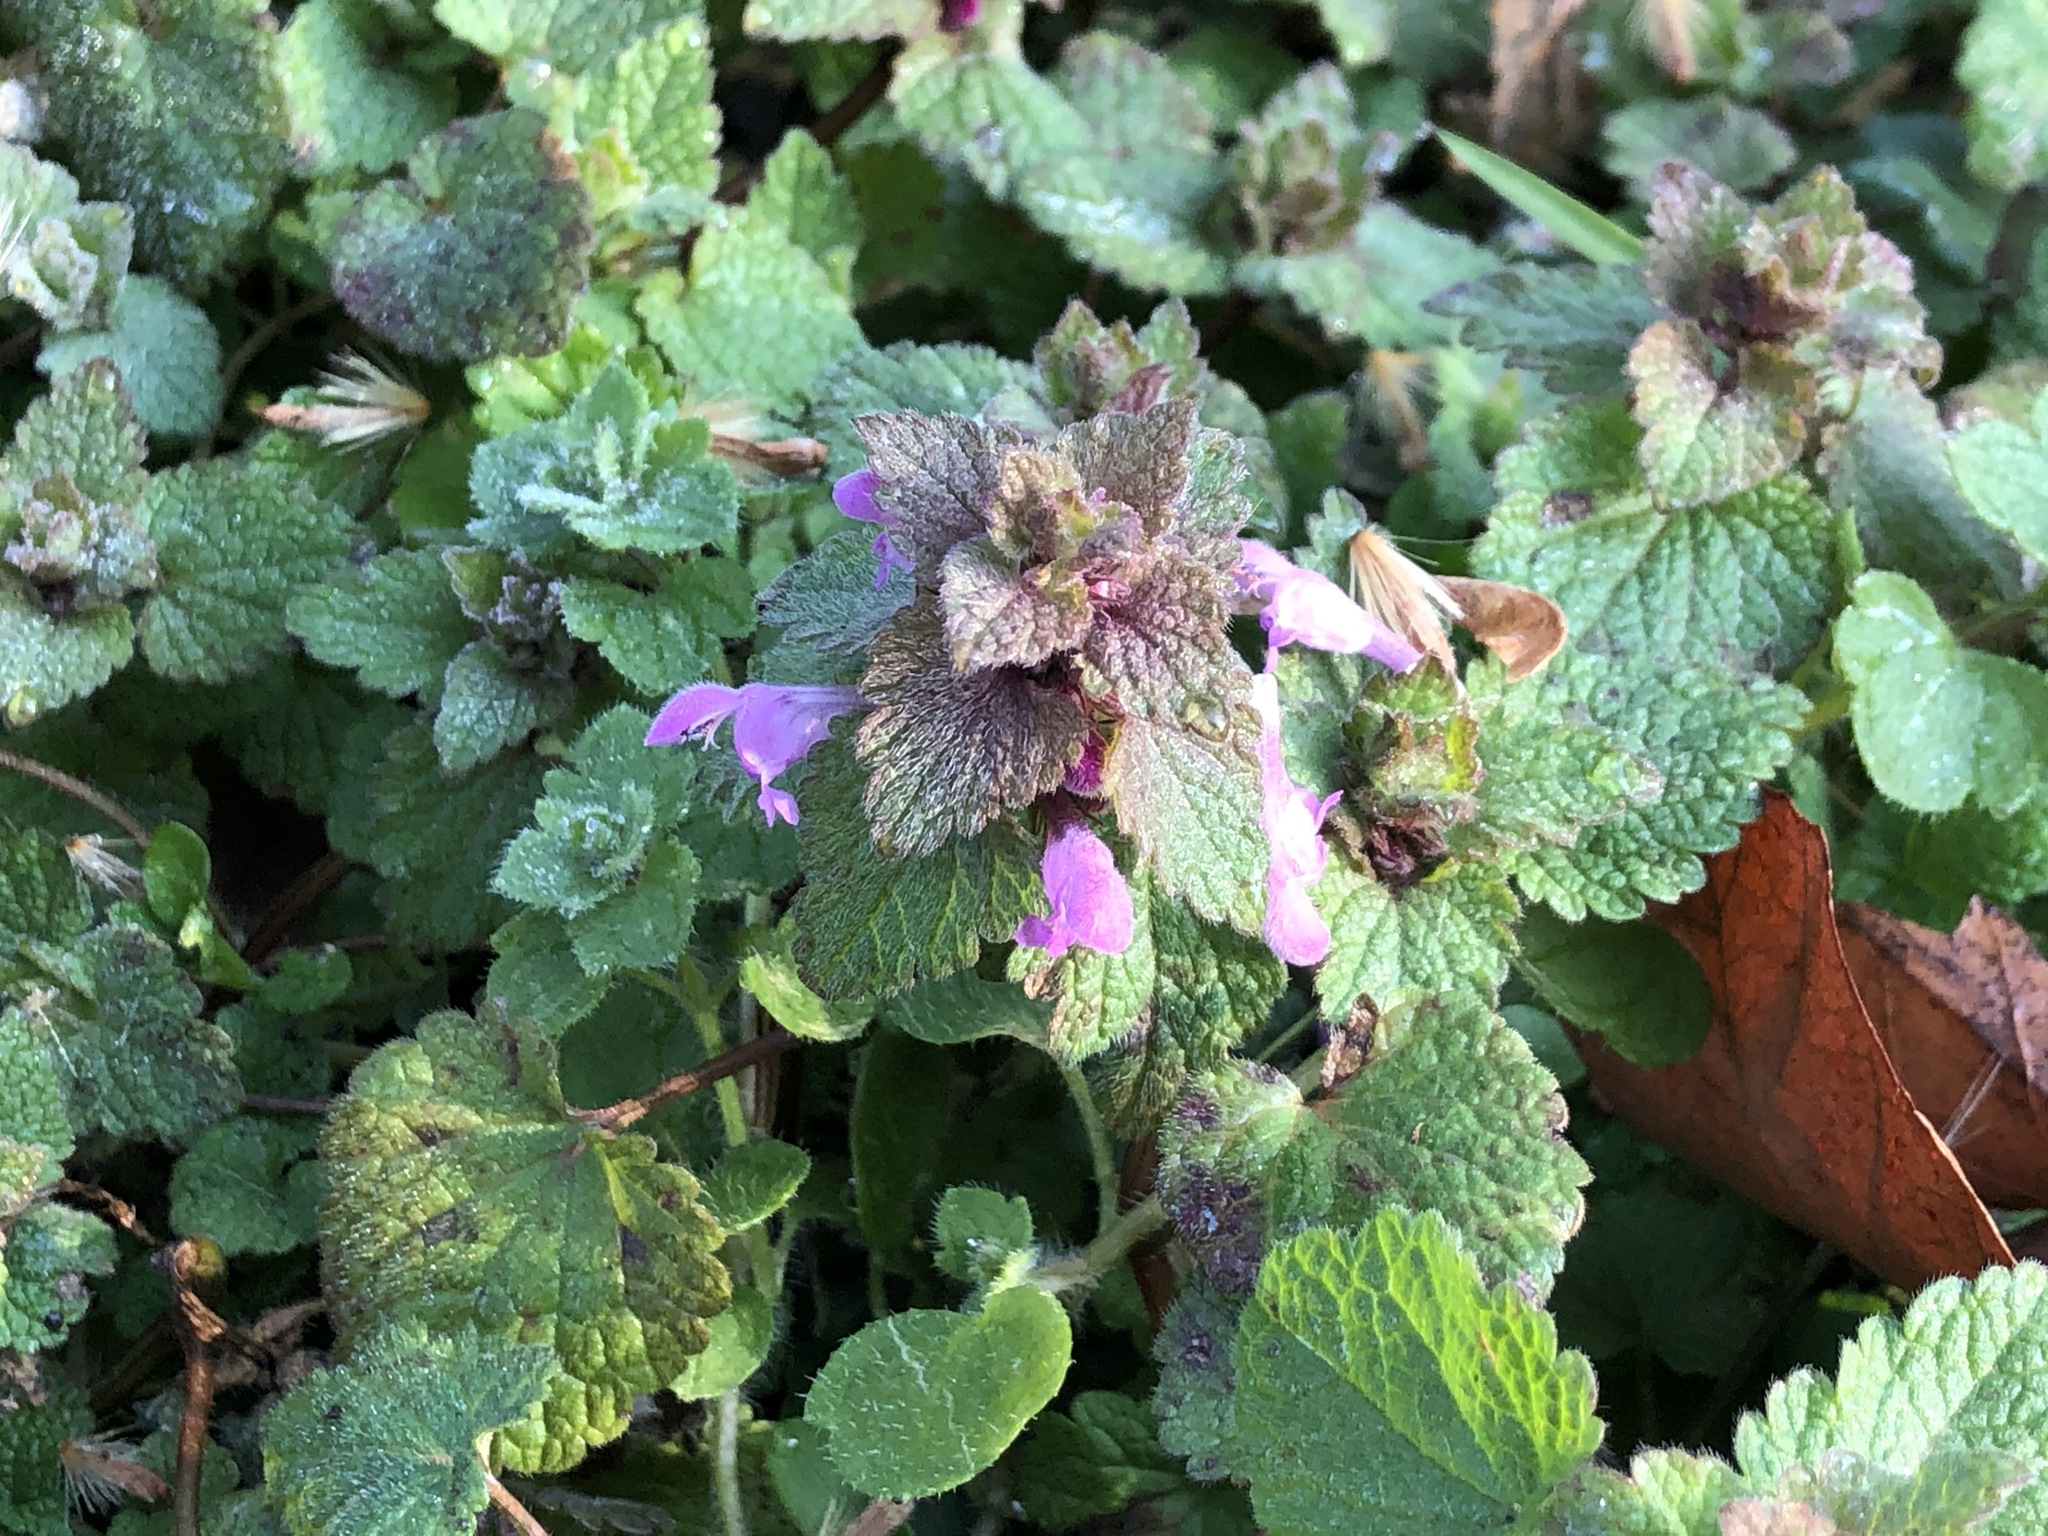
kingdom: Plantae
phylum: Tracheophyta
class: Magnoliopsida
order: Lamiales
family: Lamiaceae
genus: Lamium
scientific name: Lamium purpureum
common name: Red dead-nettle
